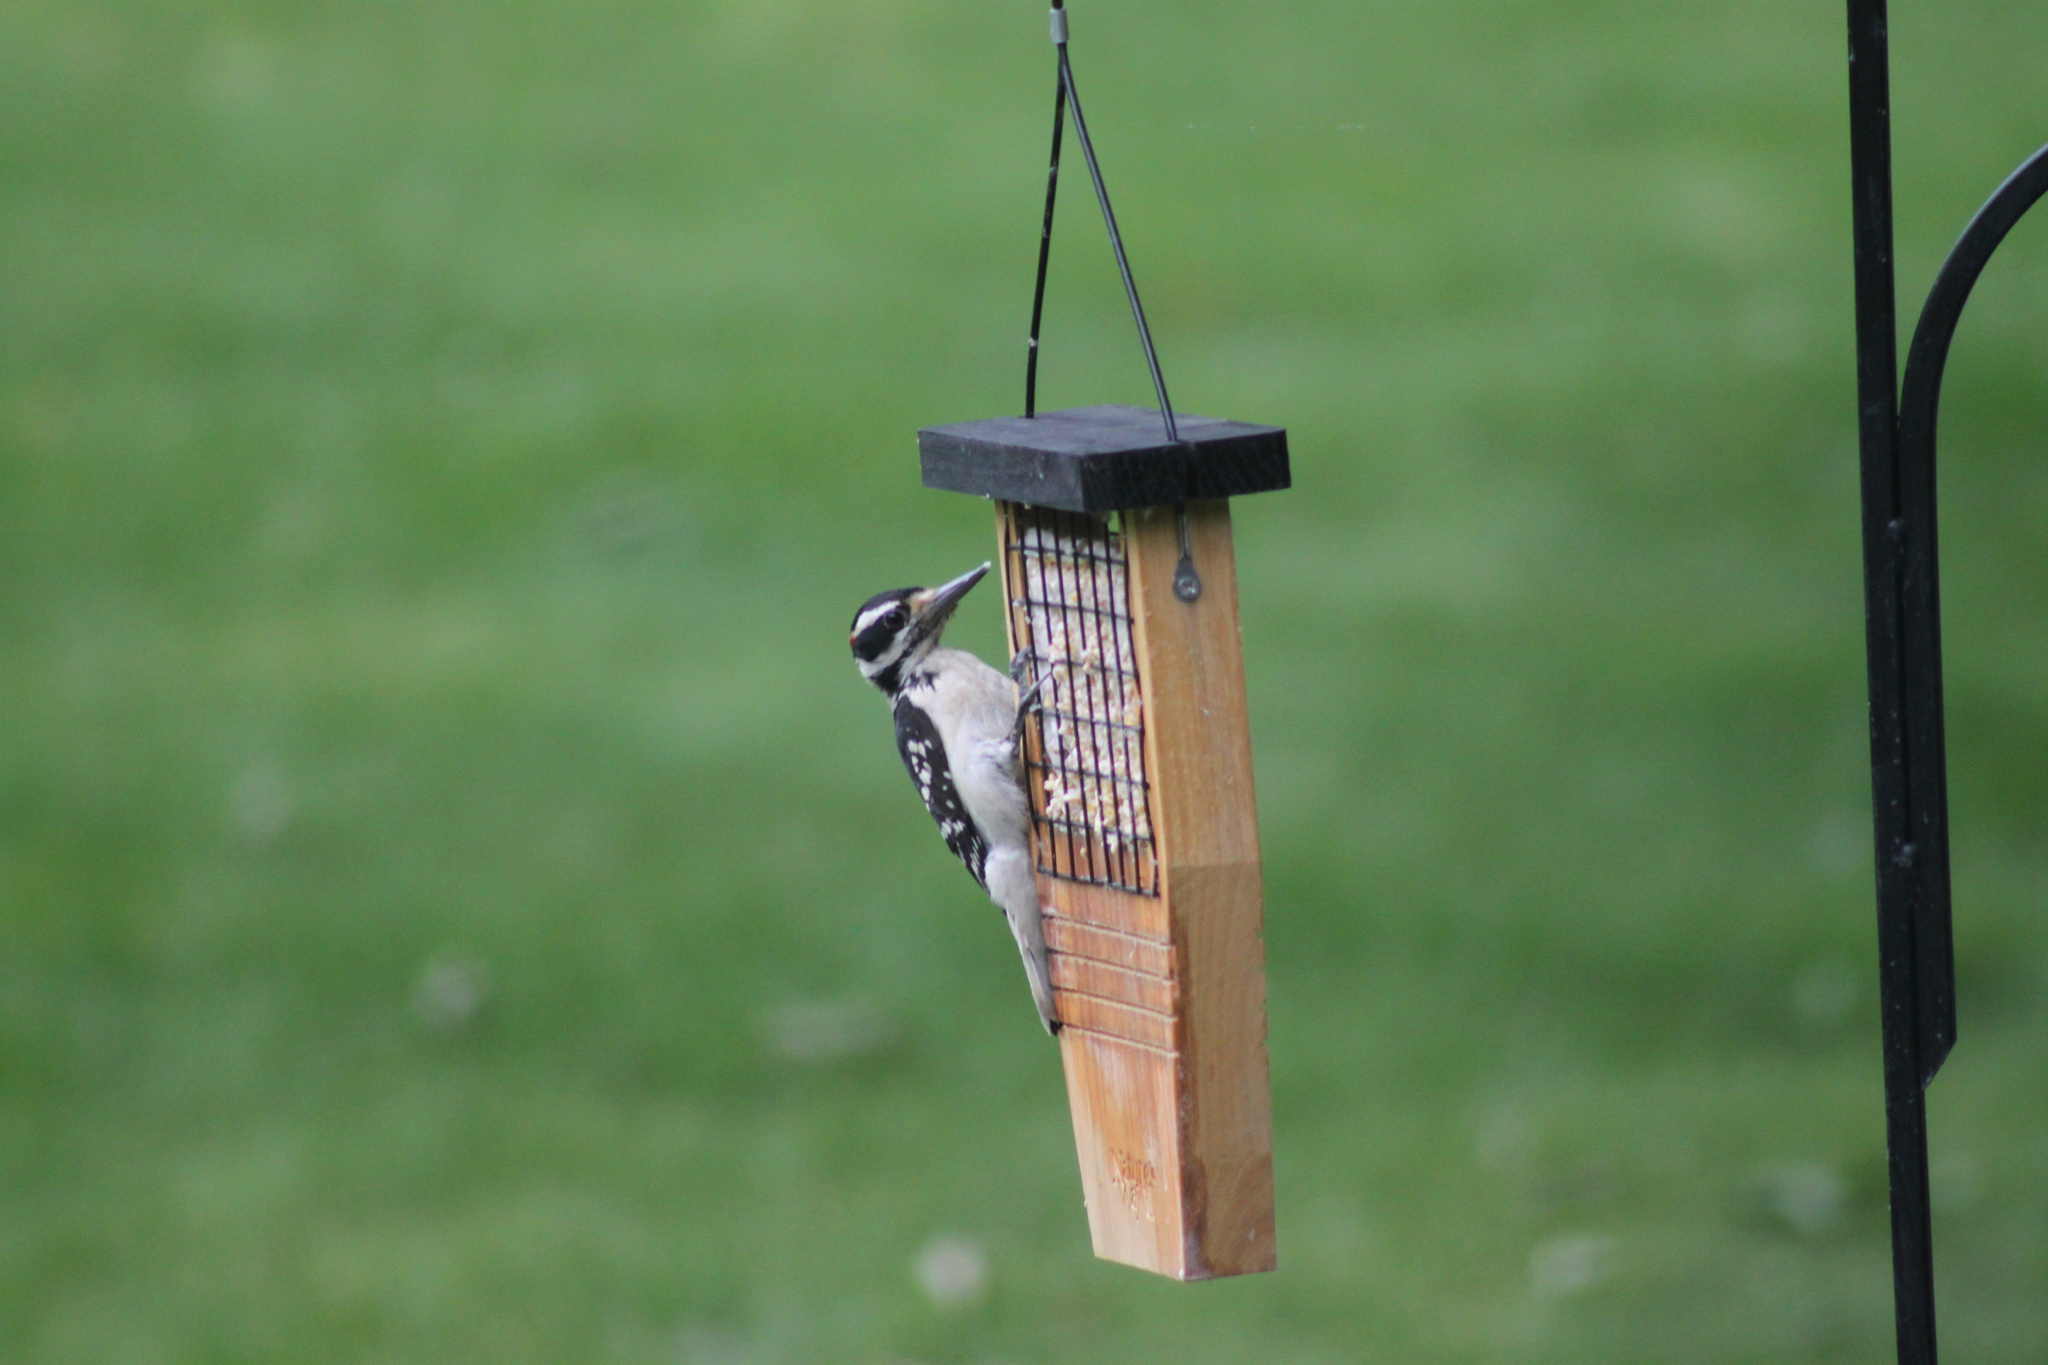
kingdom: Animalia
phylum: Chordata
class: Aves
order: Piciformes
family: Picidae
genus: Leuconotopicus
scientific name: Leuconotopicus villosus
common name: Hairy woodpecker
